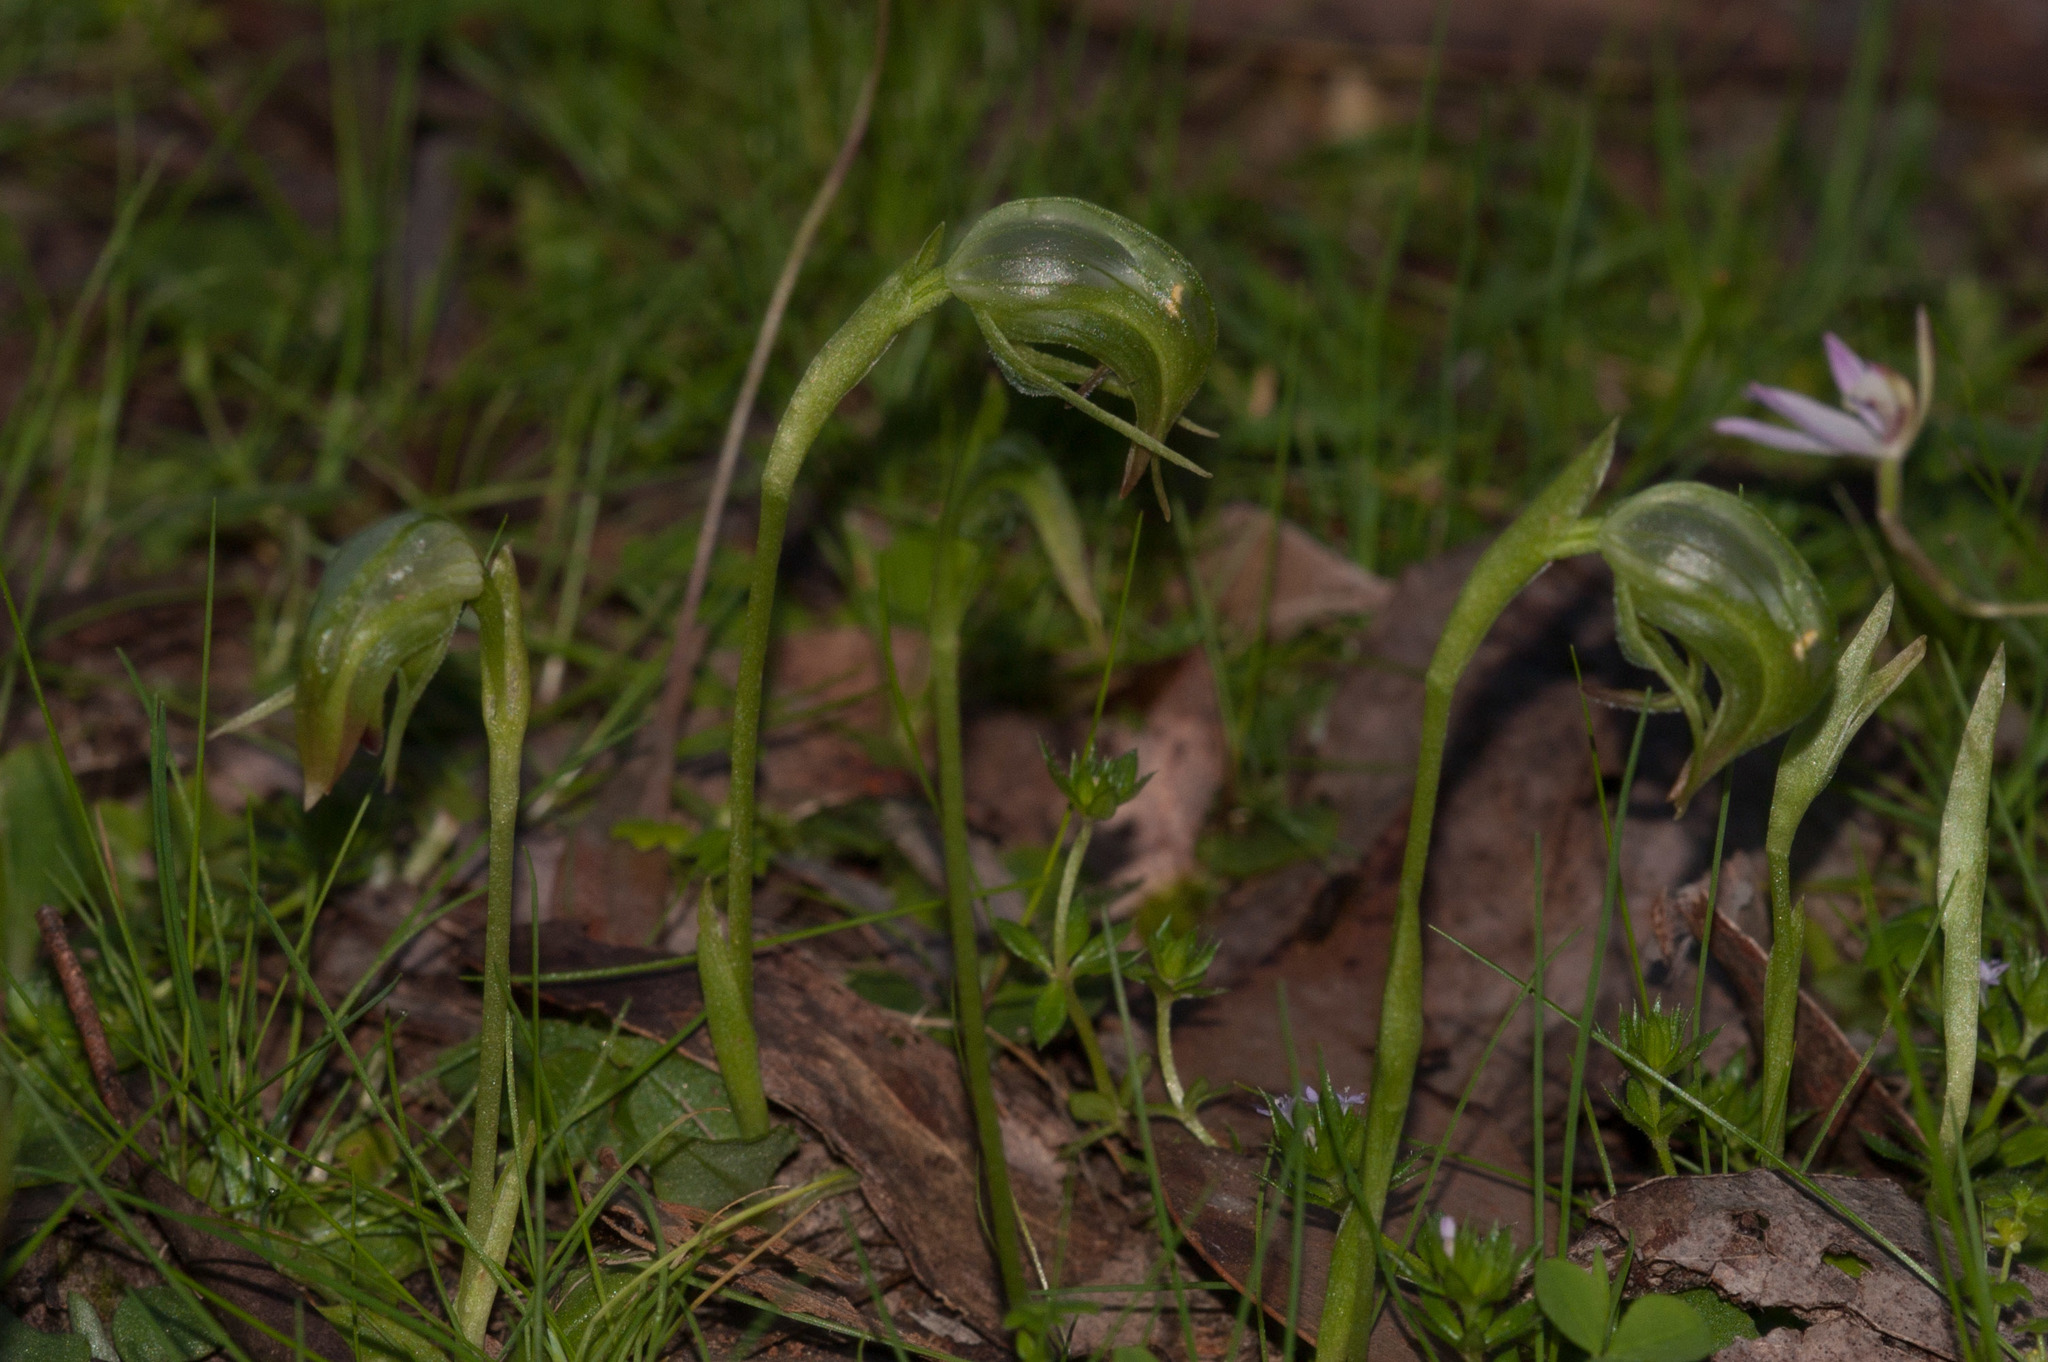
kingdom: Plantae
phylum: Tracheophyta
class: Liliopsida
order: Asparagales
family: Orchidaceae
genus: Pterostylis
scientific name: Pterostylis nutans
